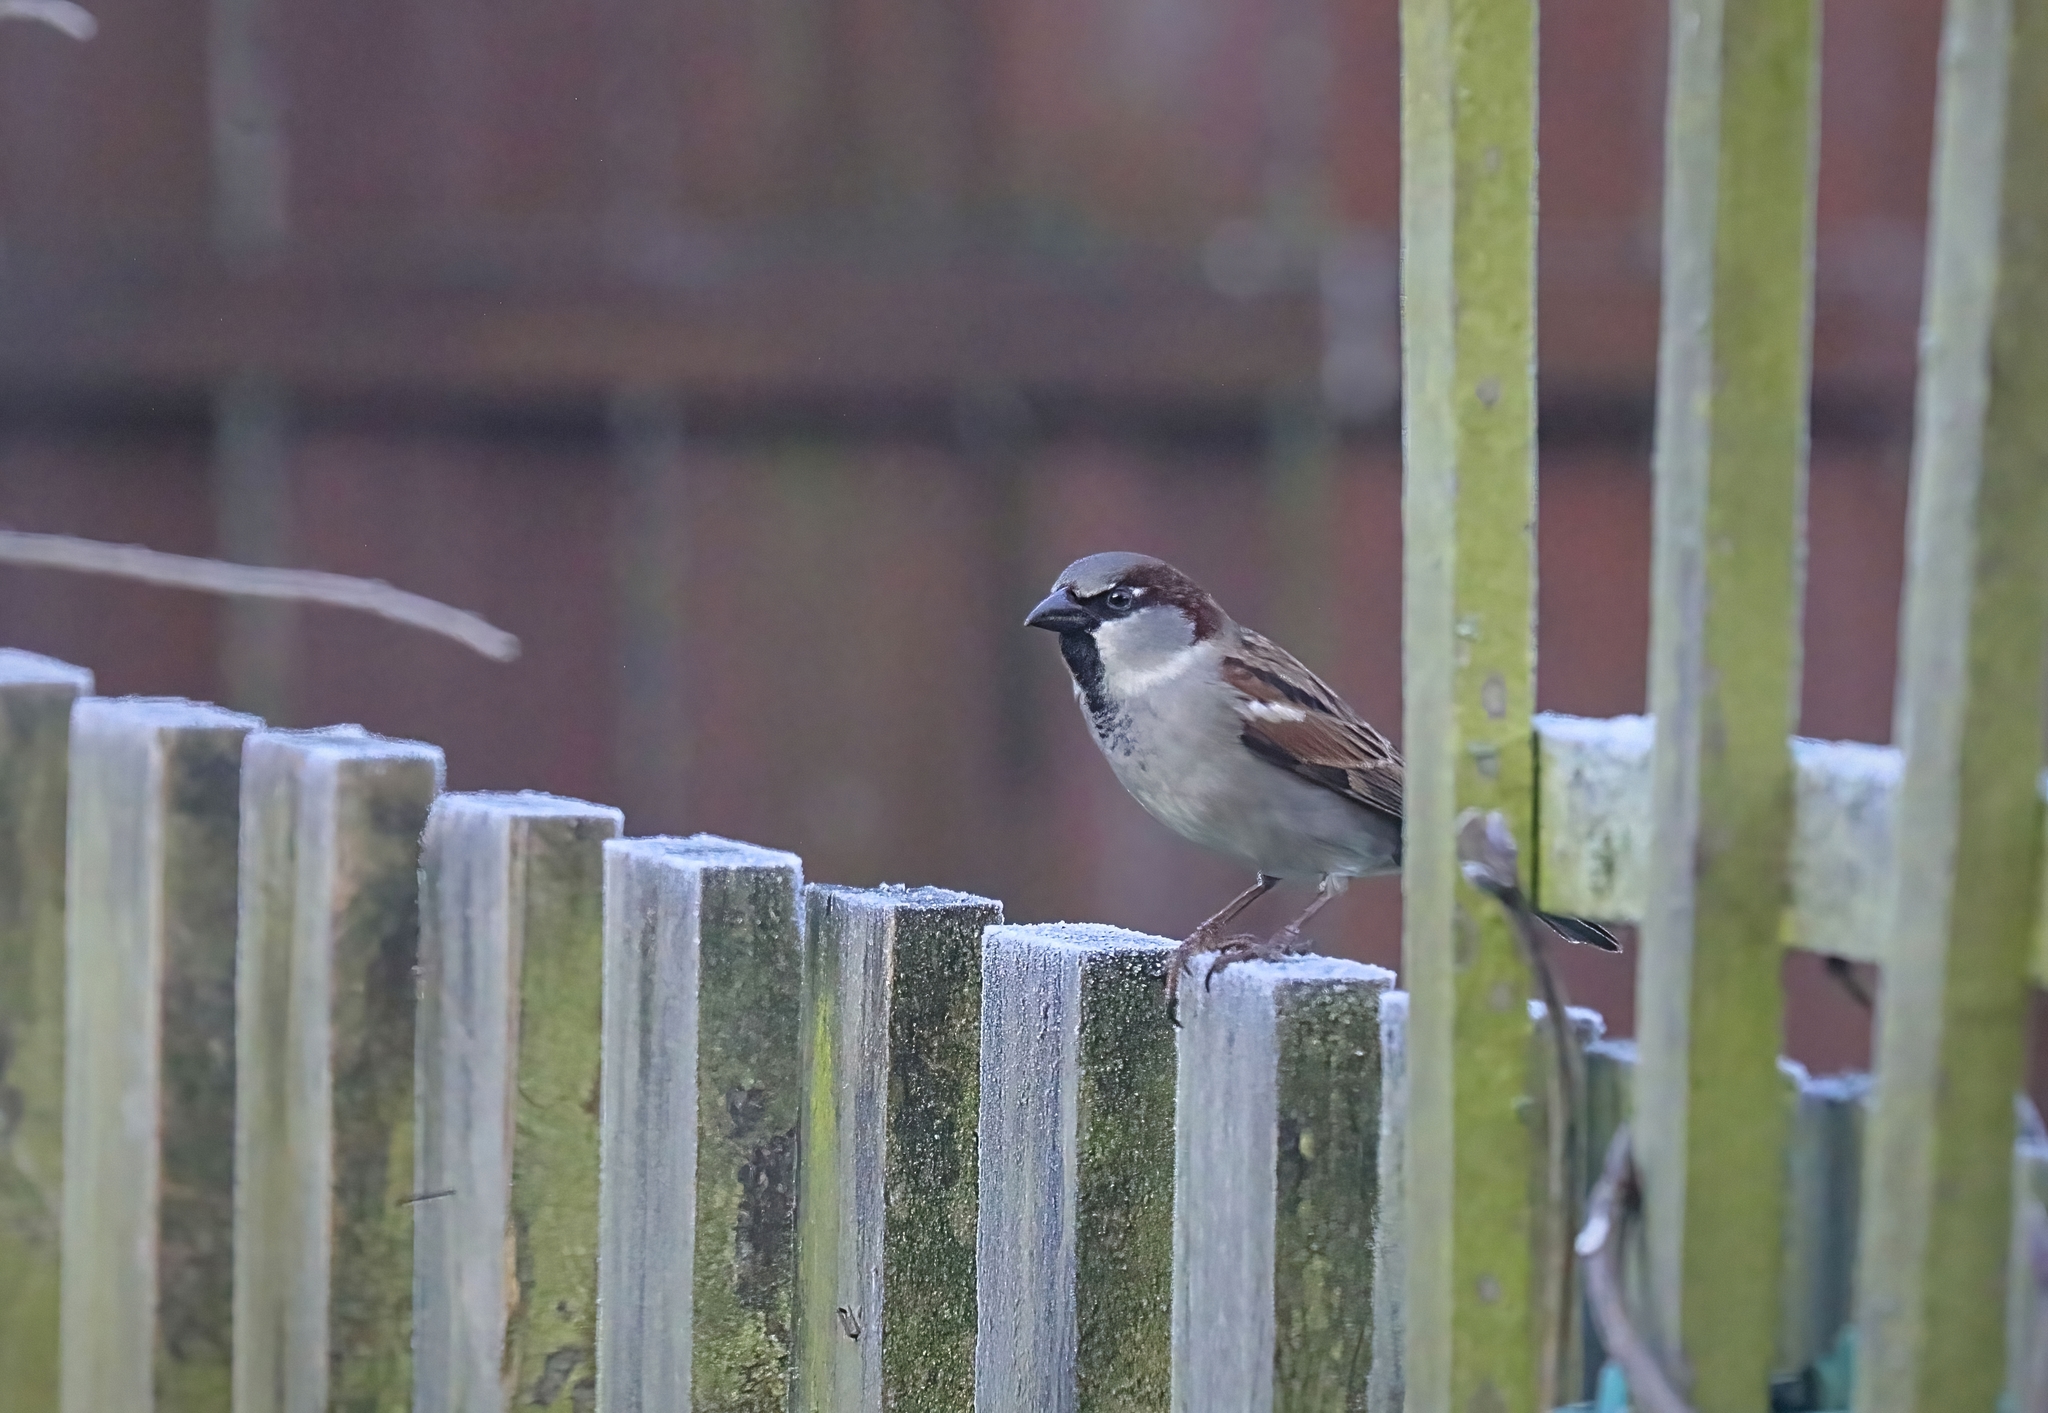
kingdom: Animalia
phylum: Chordata
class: Aves
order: Passeriformes
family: Passeridae
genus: Passer
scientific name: Passer domesticus
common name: House sparrow
